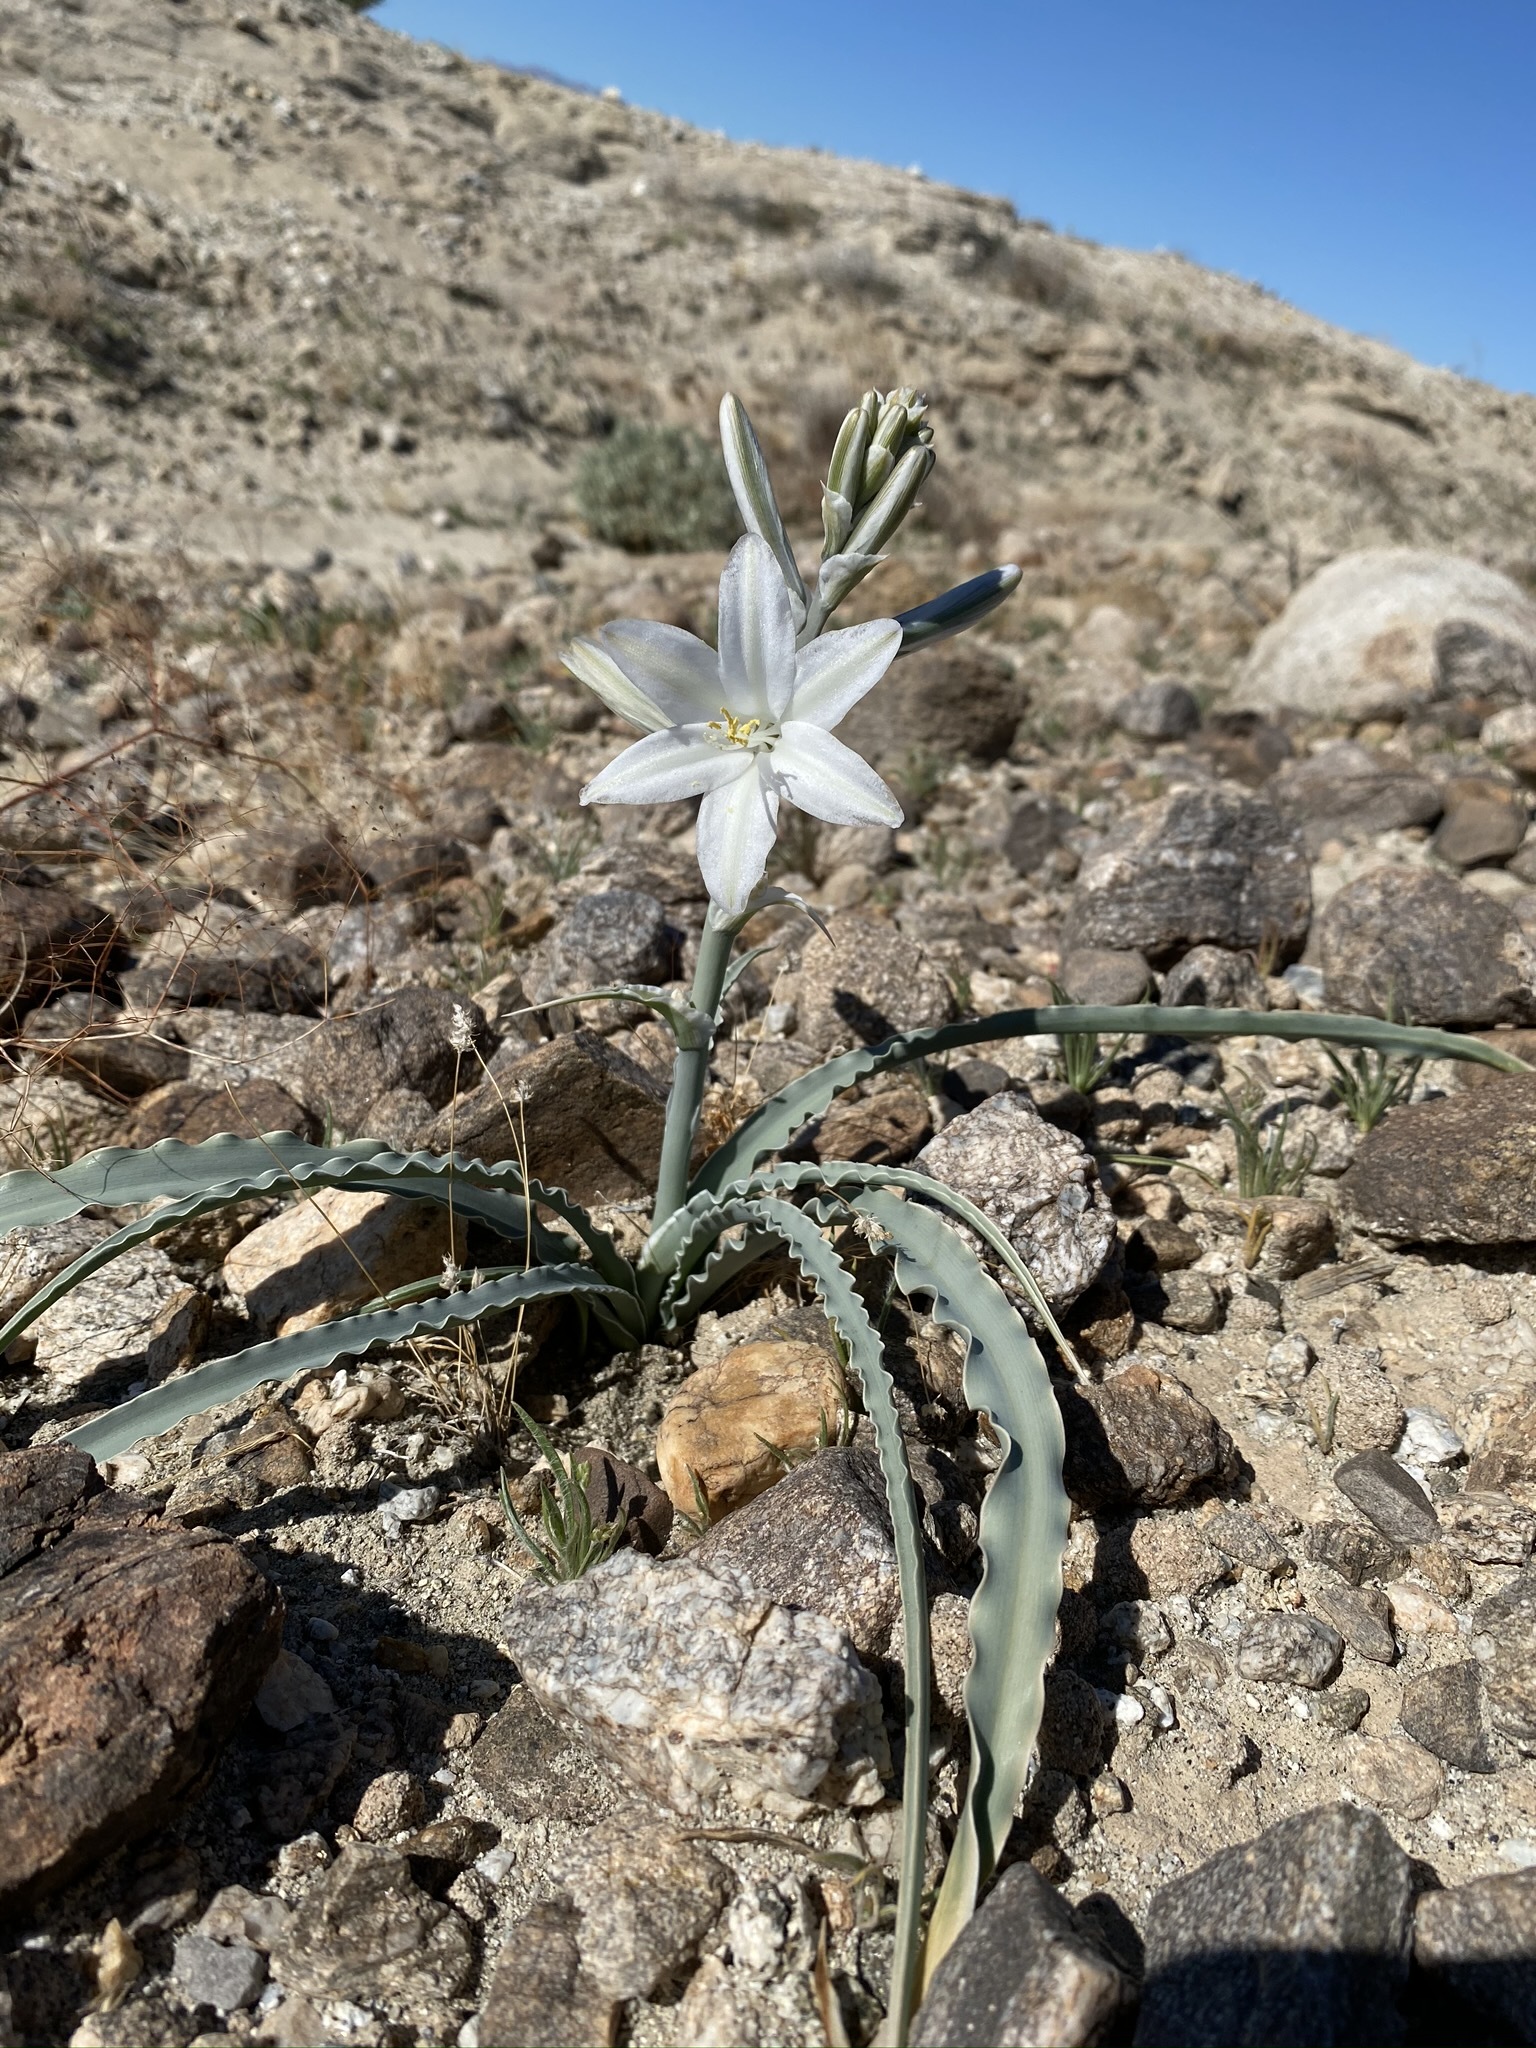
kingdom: Plantae
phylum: Tracheophyta
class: Liliopsida
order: Asparagales
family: Asparagaceae
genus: Hesperocallis
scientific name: Hesperocallis undulata
